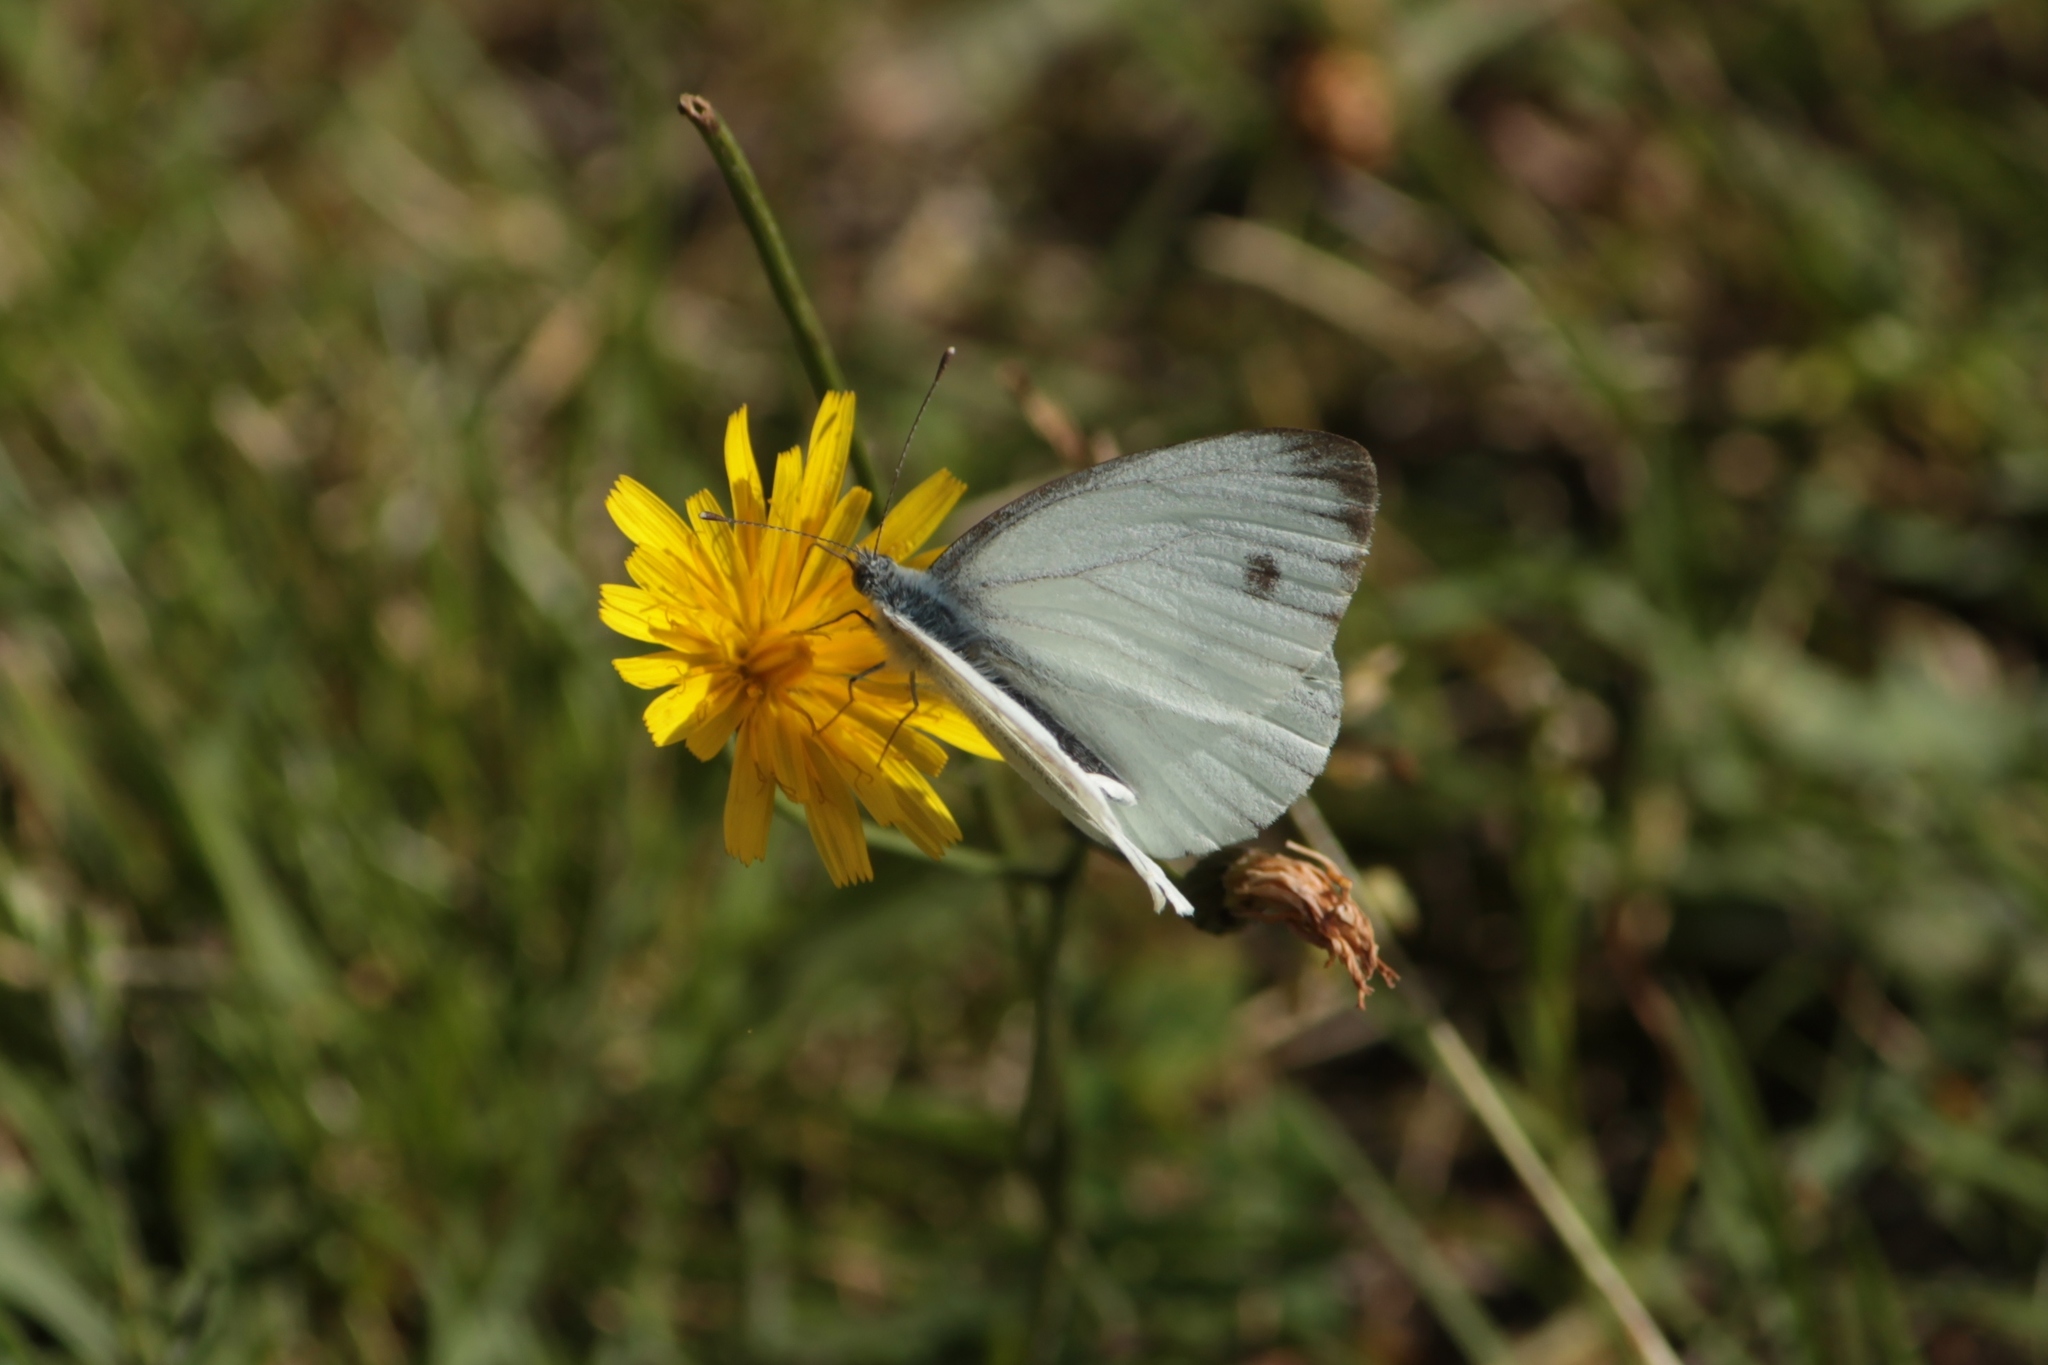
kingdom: Animalia
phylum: Arthropoda
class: Insecta
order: Lepidoptera
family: Pieridae
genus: Pieris
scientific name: Pieris napi
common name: Green-veined white
